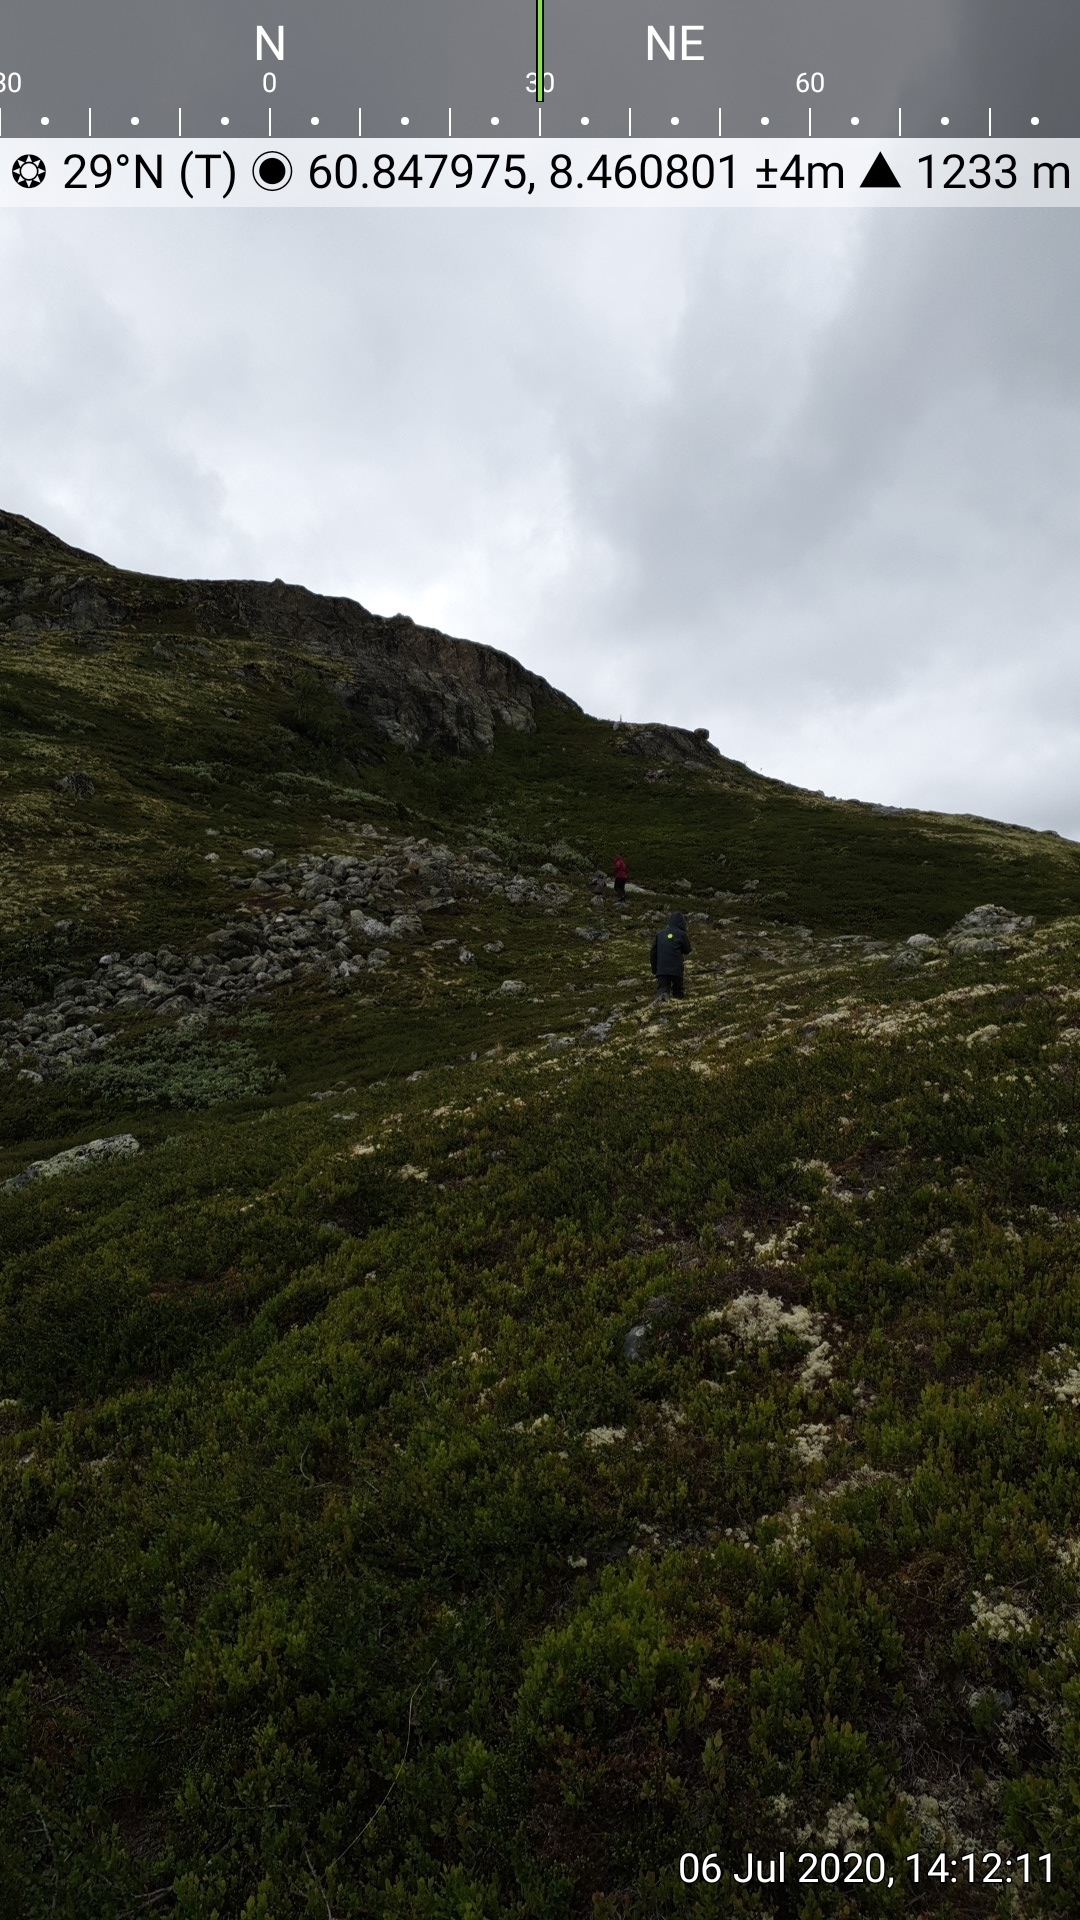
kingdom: Plantae
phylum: Tracheophyta
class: Magnoliopsida
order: Lamiales
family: Orobanchaceae
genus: Pedicularis
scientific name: Pedicularis lapponica
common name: Lapland lousewort
